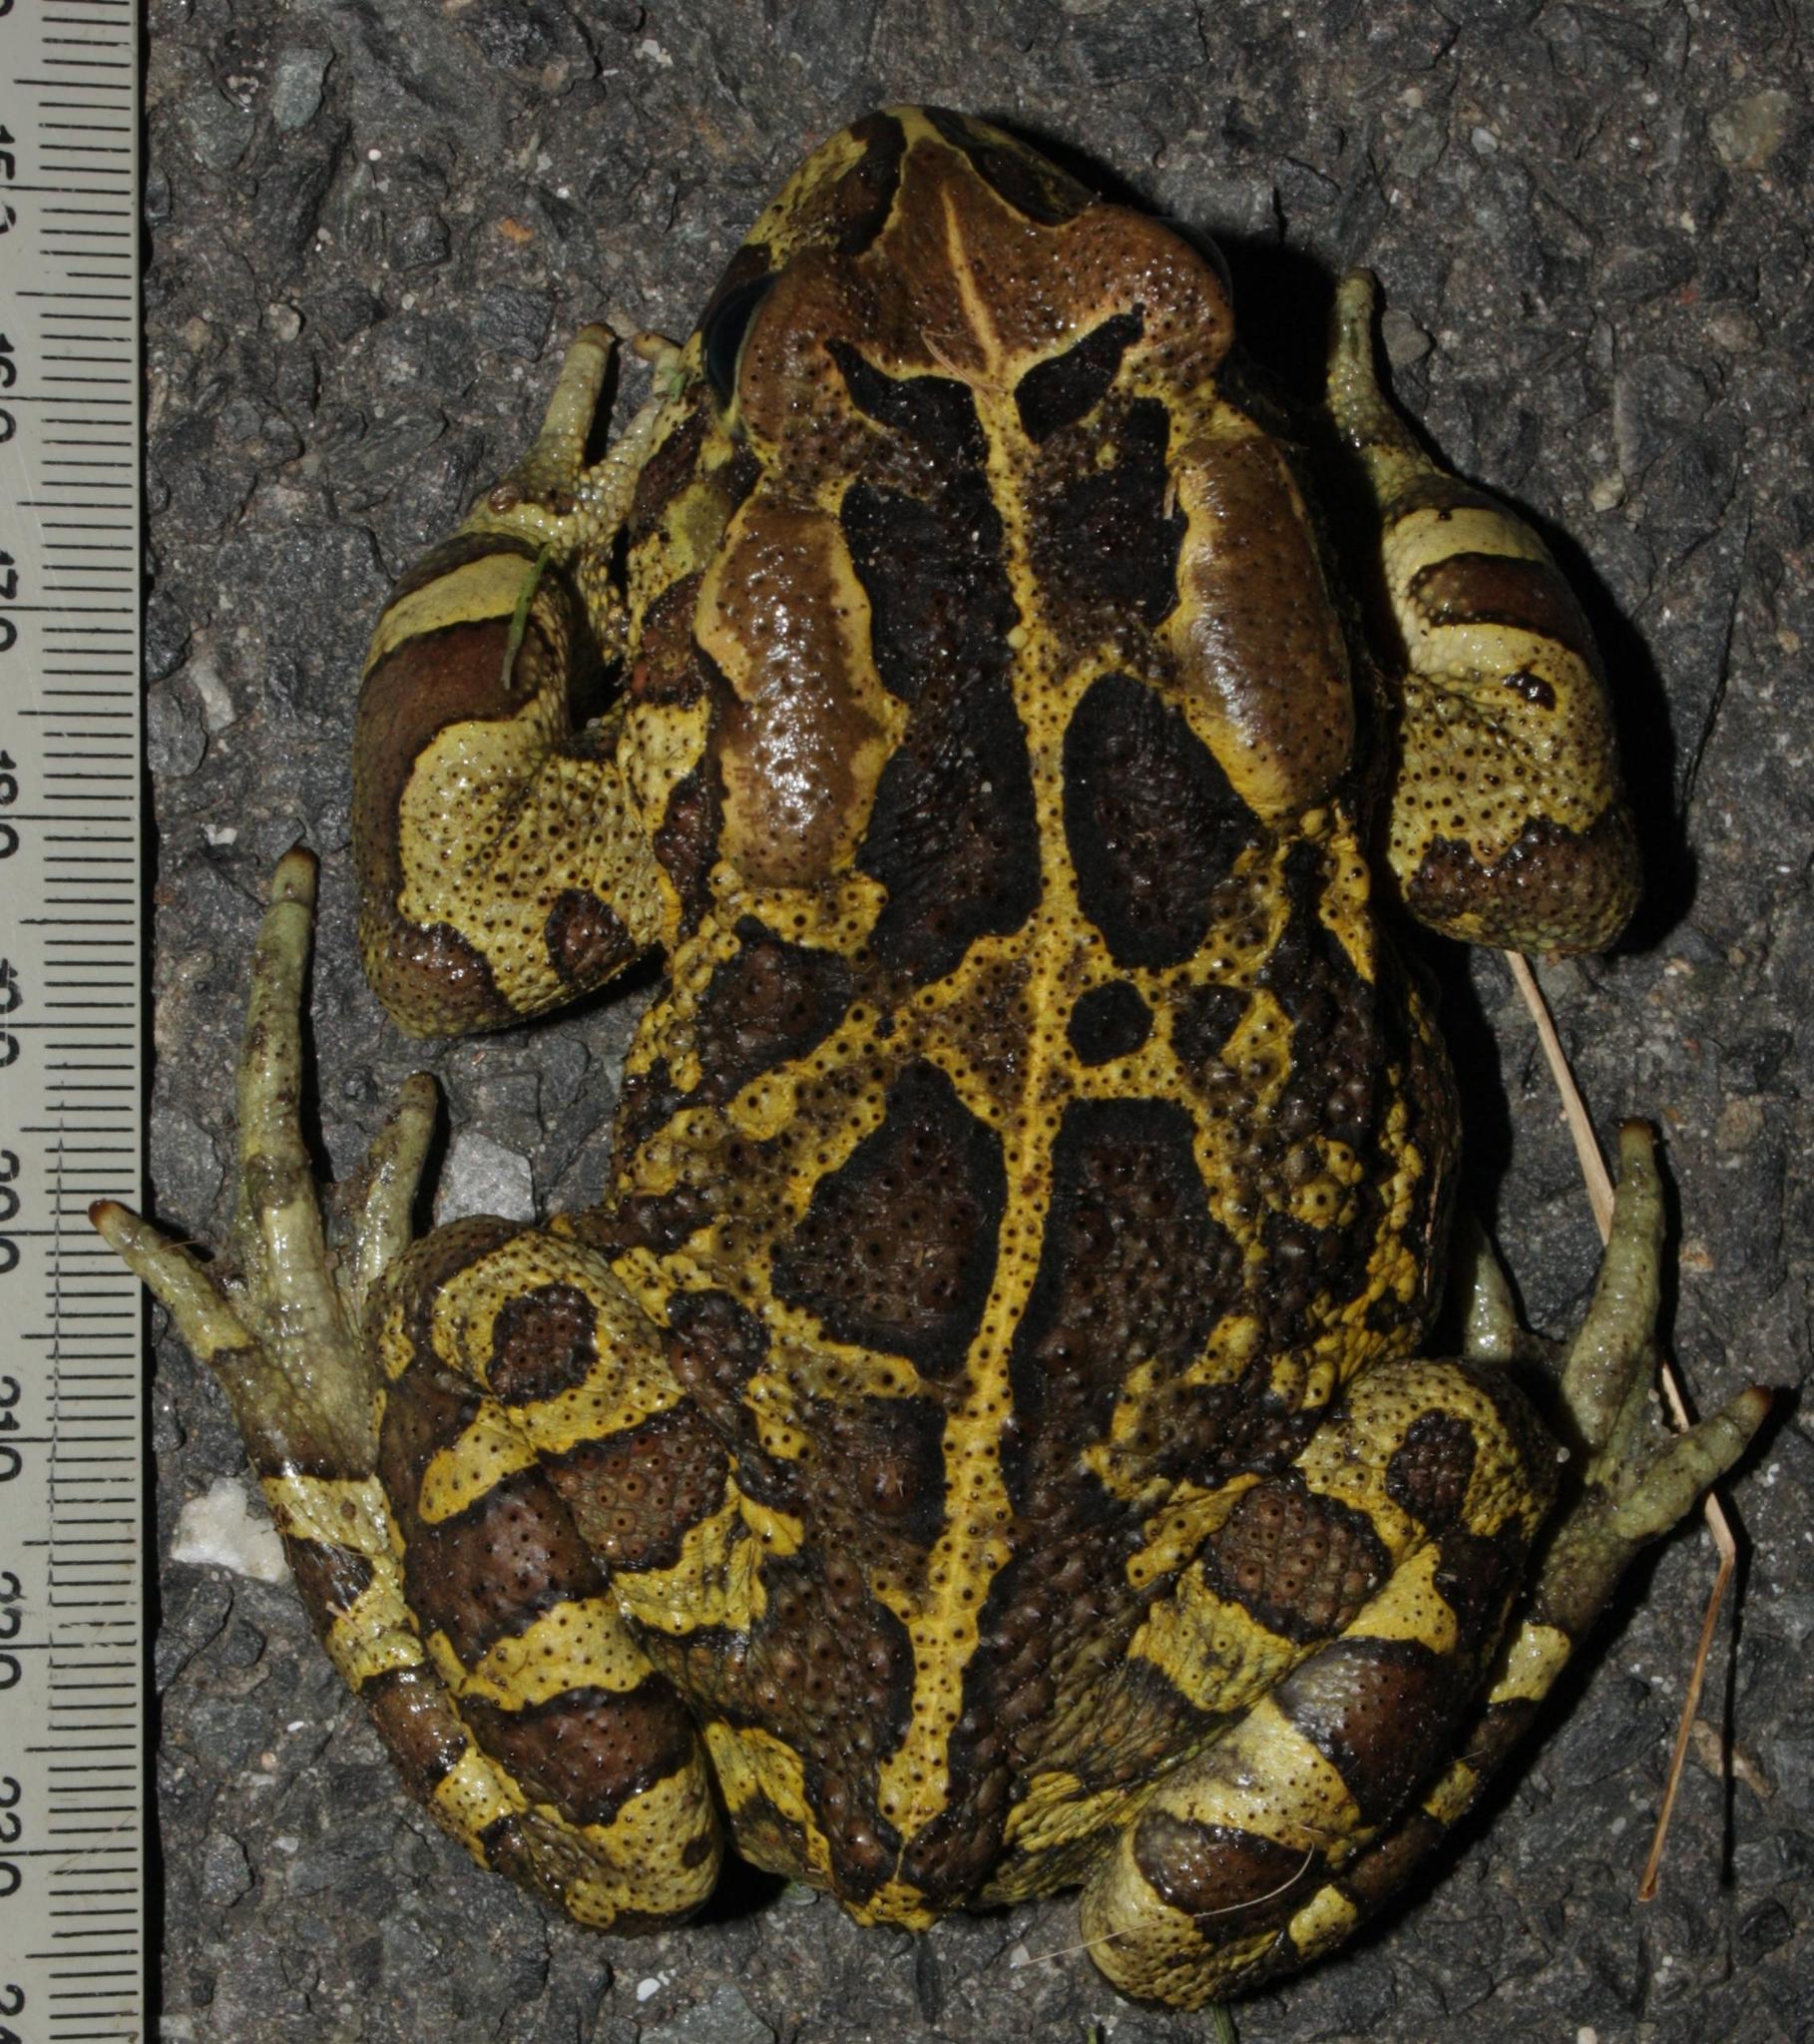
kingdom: Animalia
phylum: Chordata
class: Amphibia
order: Anura
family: Bufonidae
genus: Sclerophrys
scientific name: Sclerophrys pantherina
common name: Panther toad
